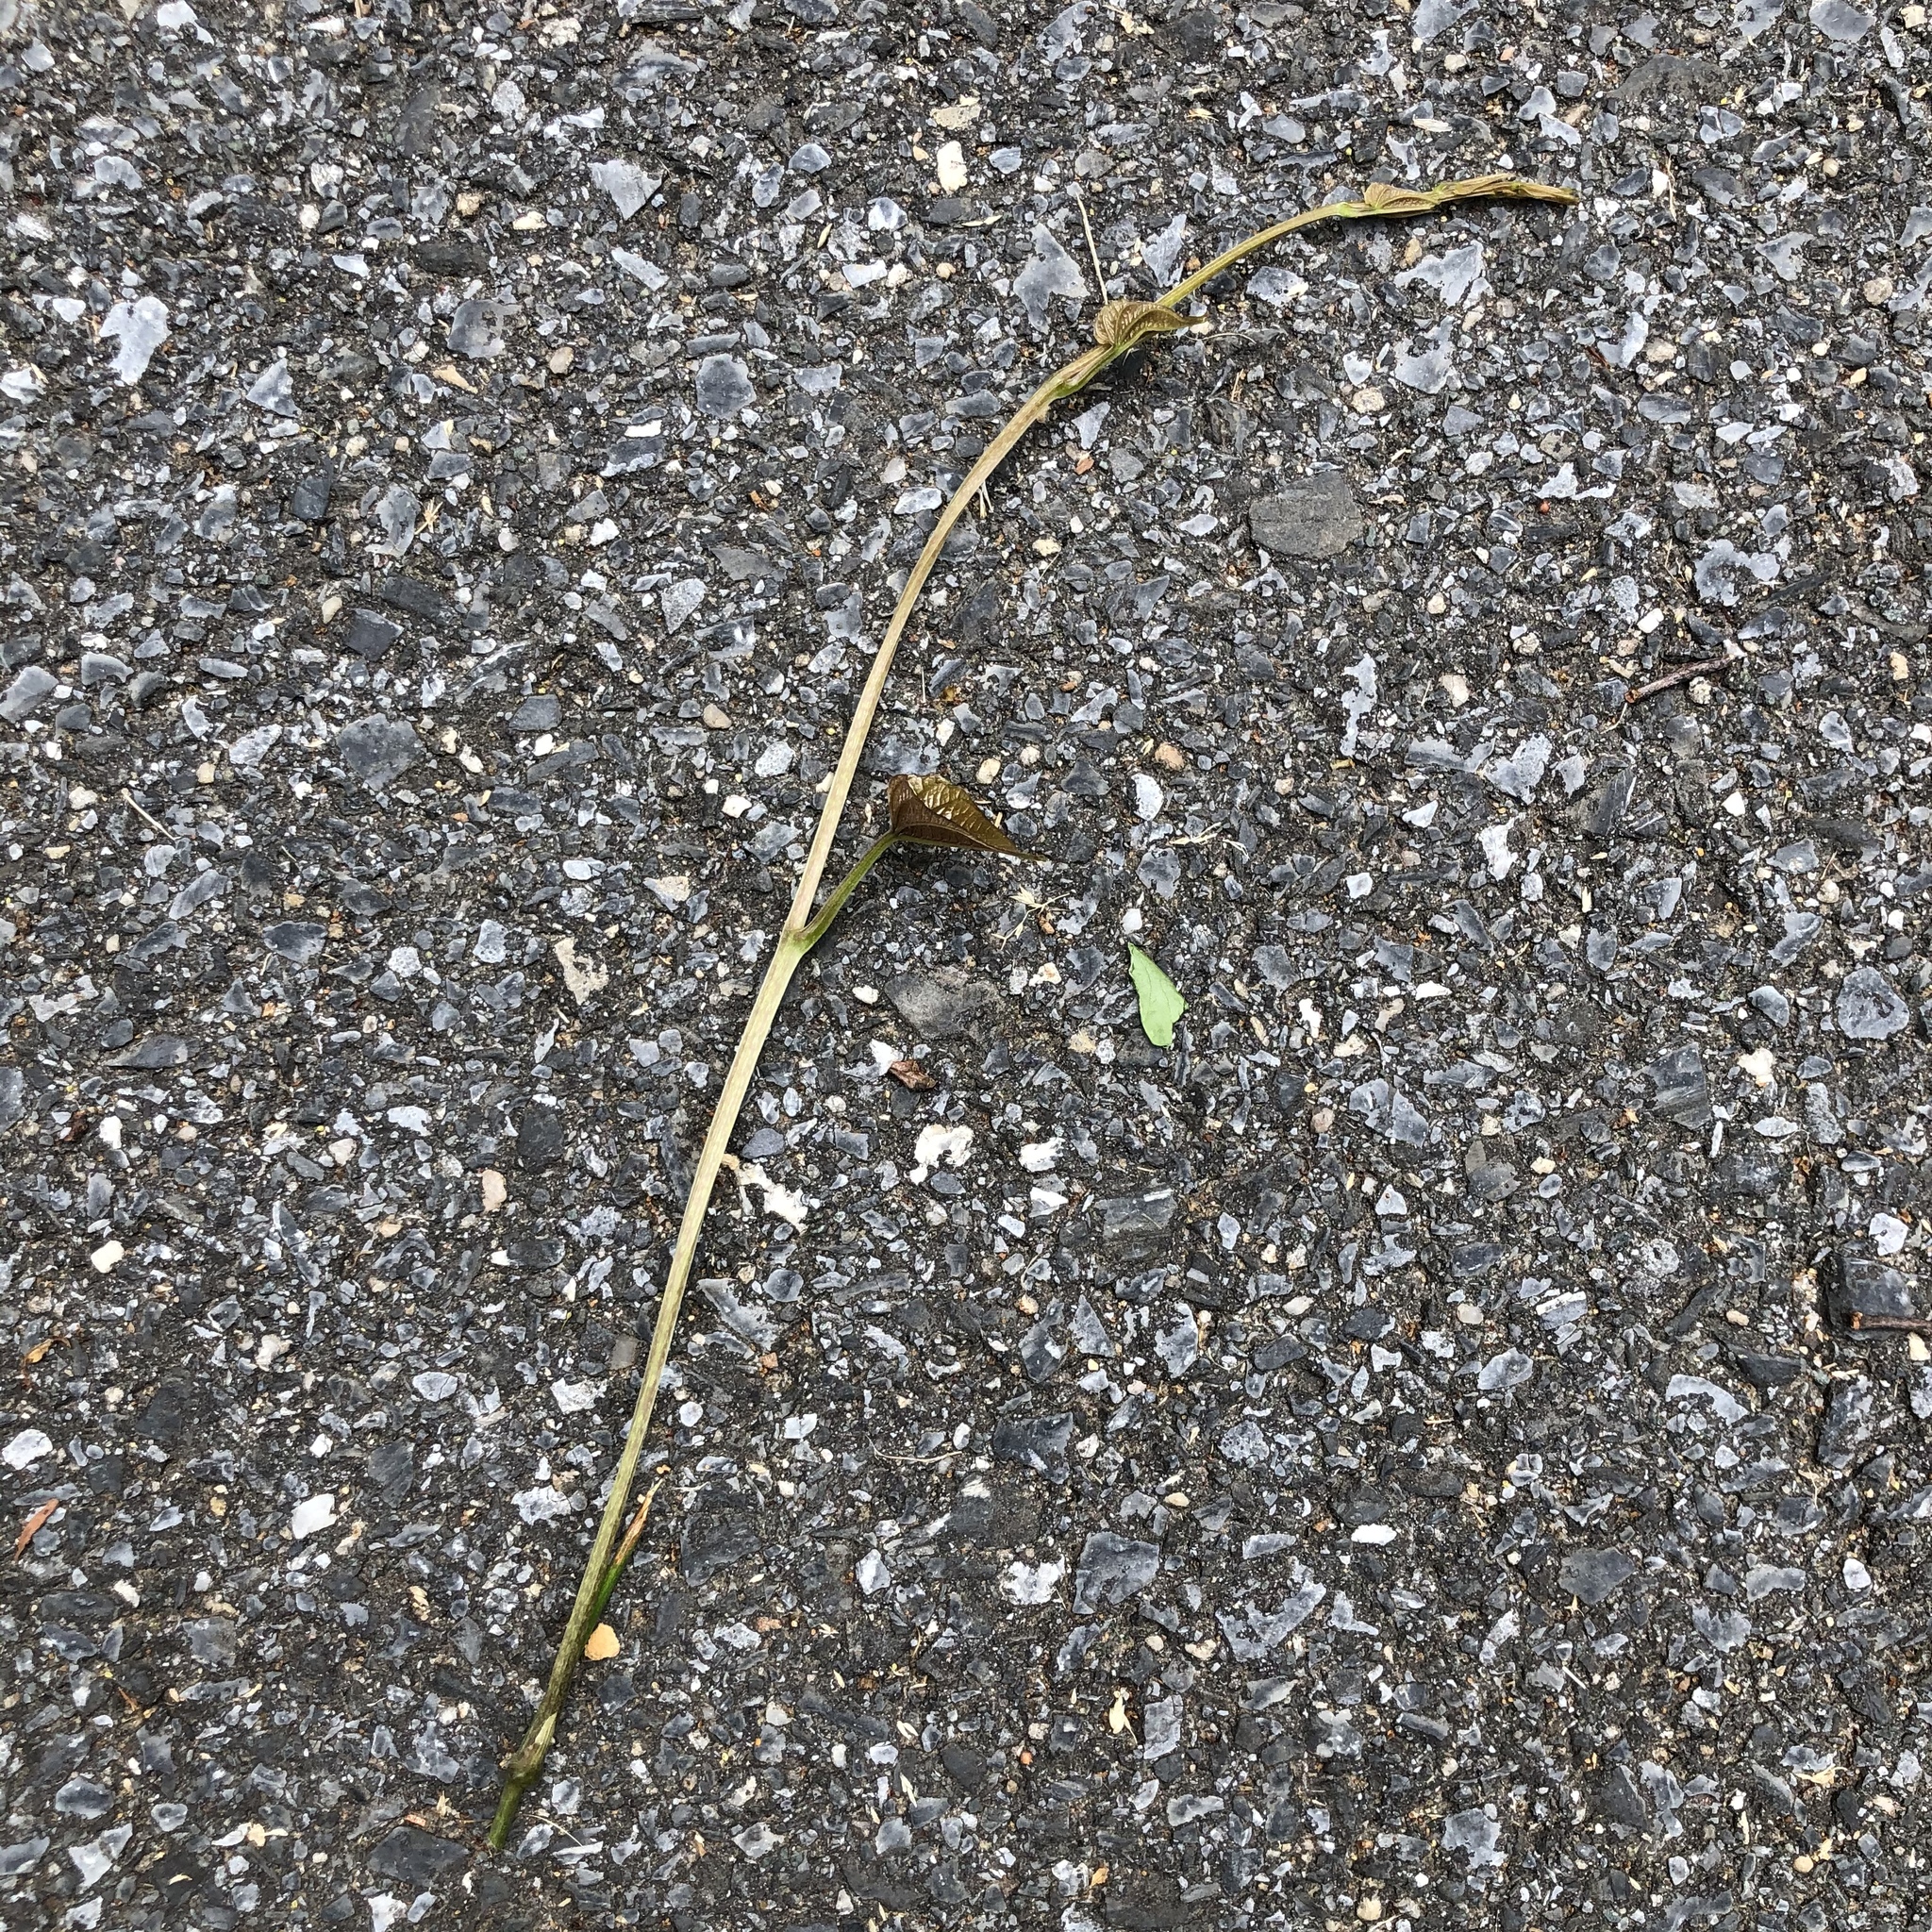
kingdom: Plantae
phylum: Tracheophyta
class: Liliopsida
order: Dioscoreales
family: Dioscoreaceae
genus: Dioscorea
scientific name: Dioscorea polystachya
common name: Chinese yam
